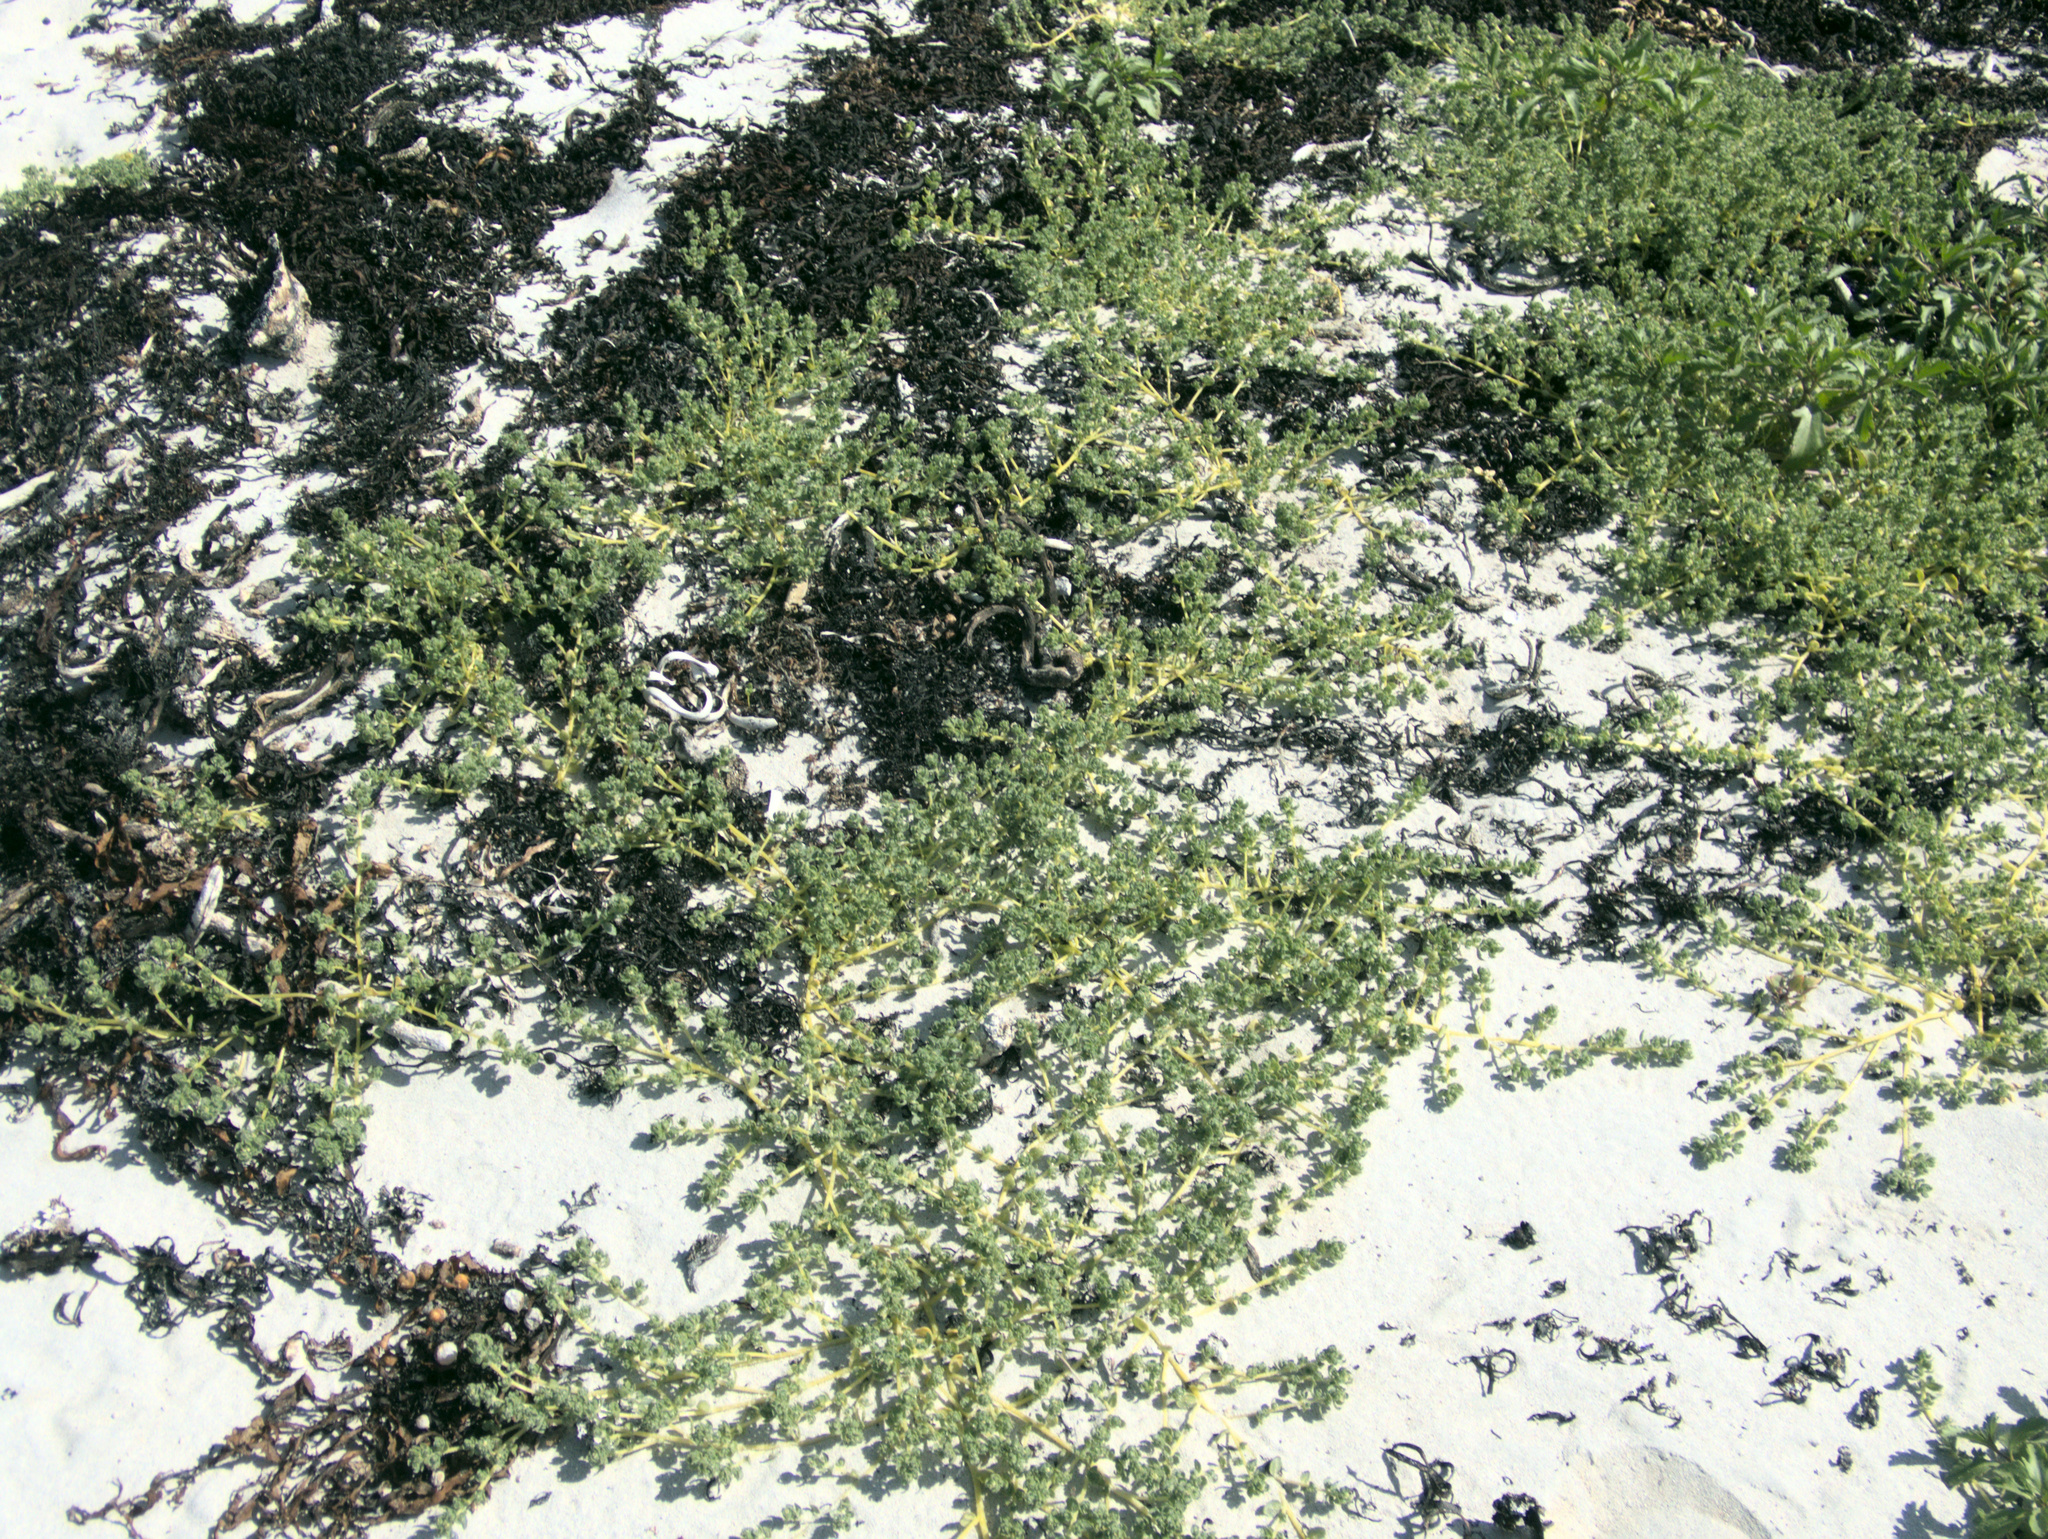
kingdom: Plantae
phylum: Tracheophyta
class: Magnoliopsida
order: Caryophyllales
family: Amaranthaceae
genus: Atriplex
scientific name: Atriplex billardierei
